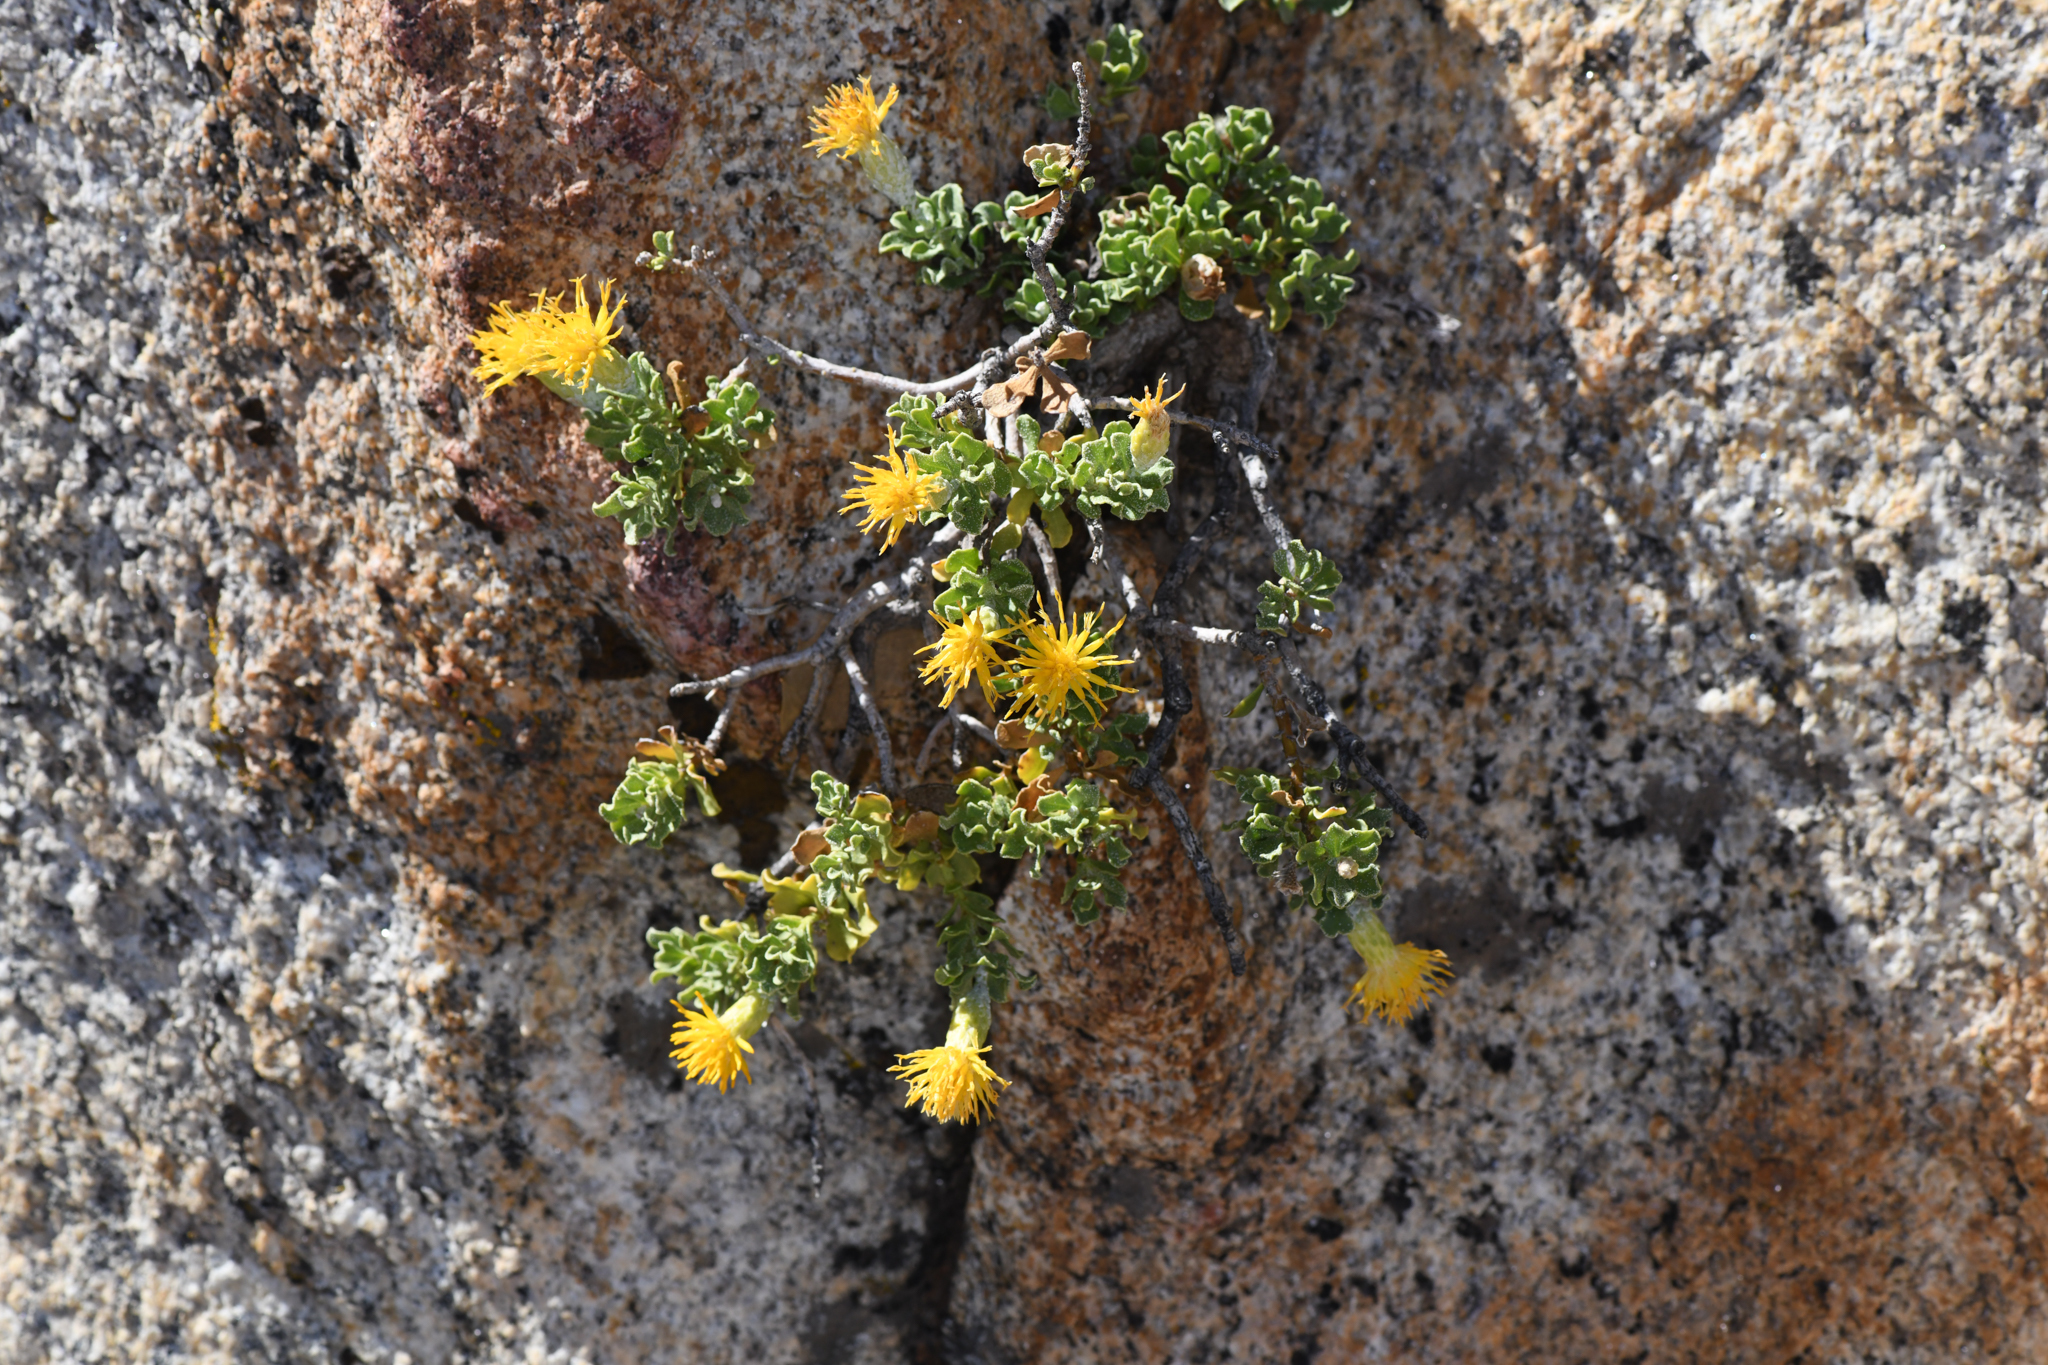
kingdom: Plantae
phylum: Tracheophyta
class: Magnoliopsida
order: Asterales
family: Asteraceae
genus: Ericameria
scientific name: Ericameria cuneata
